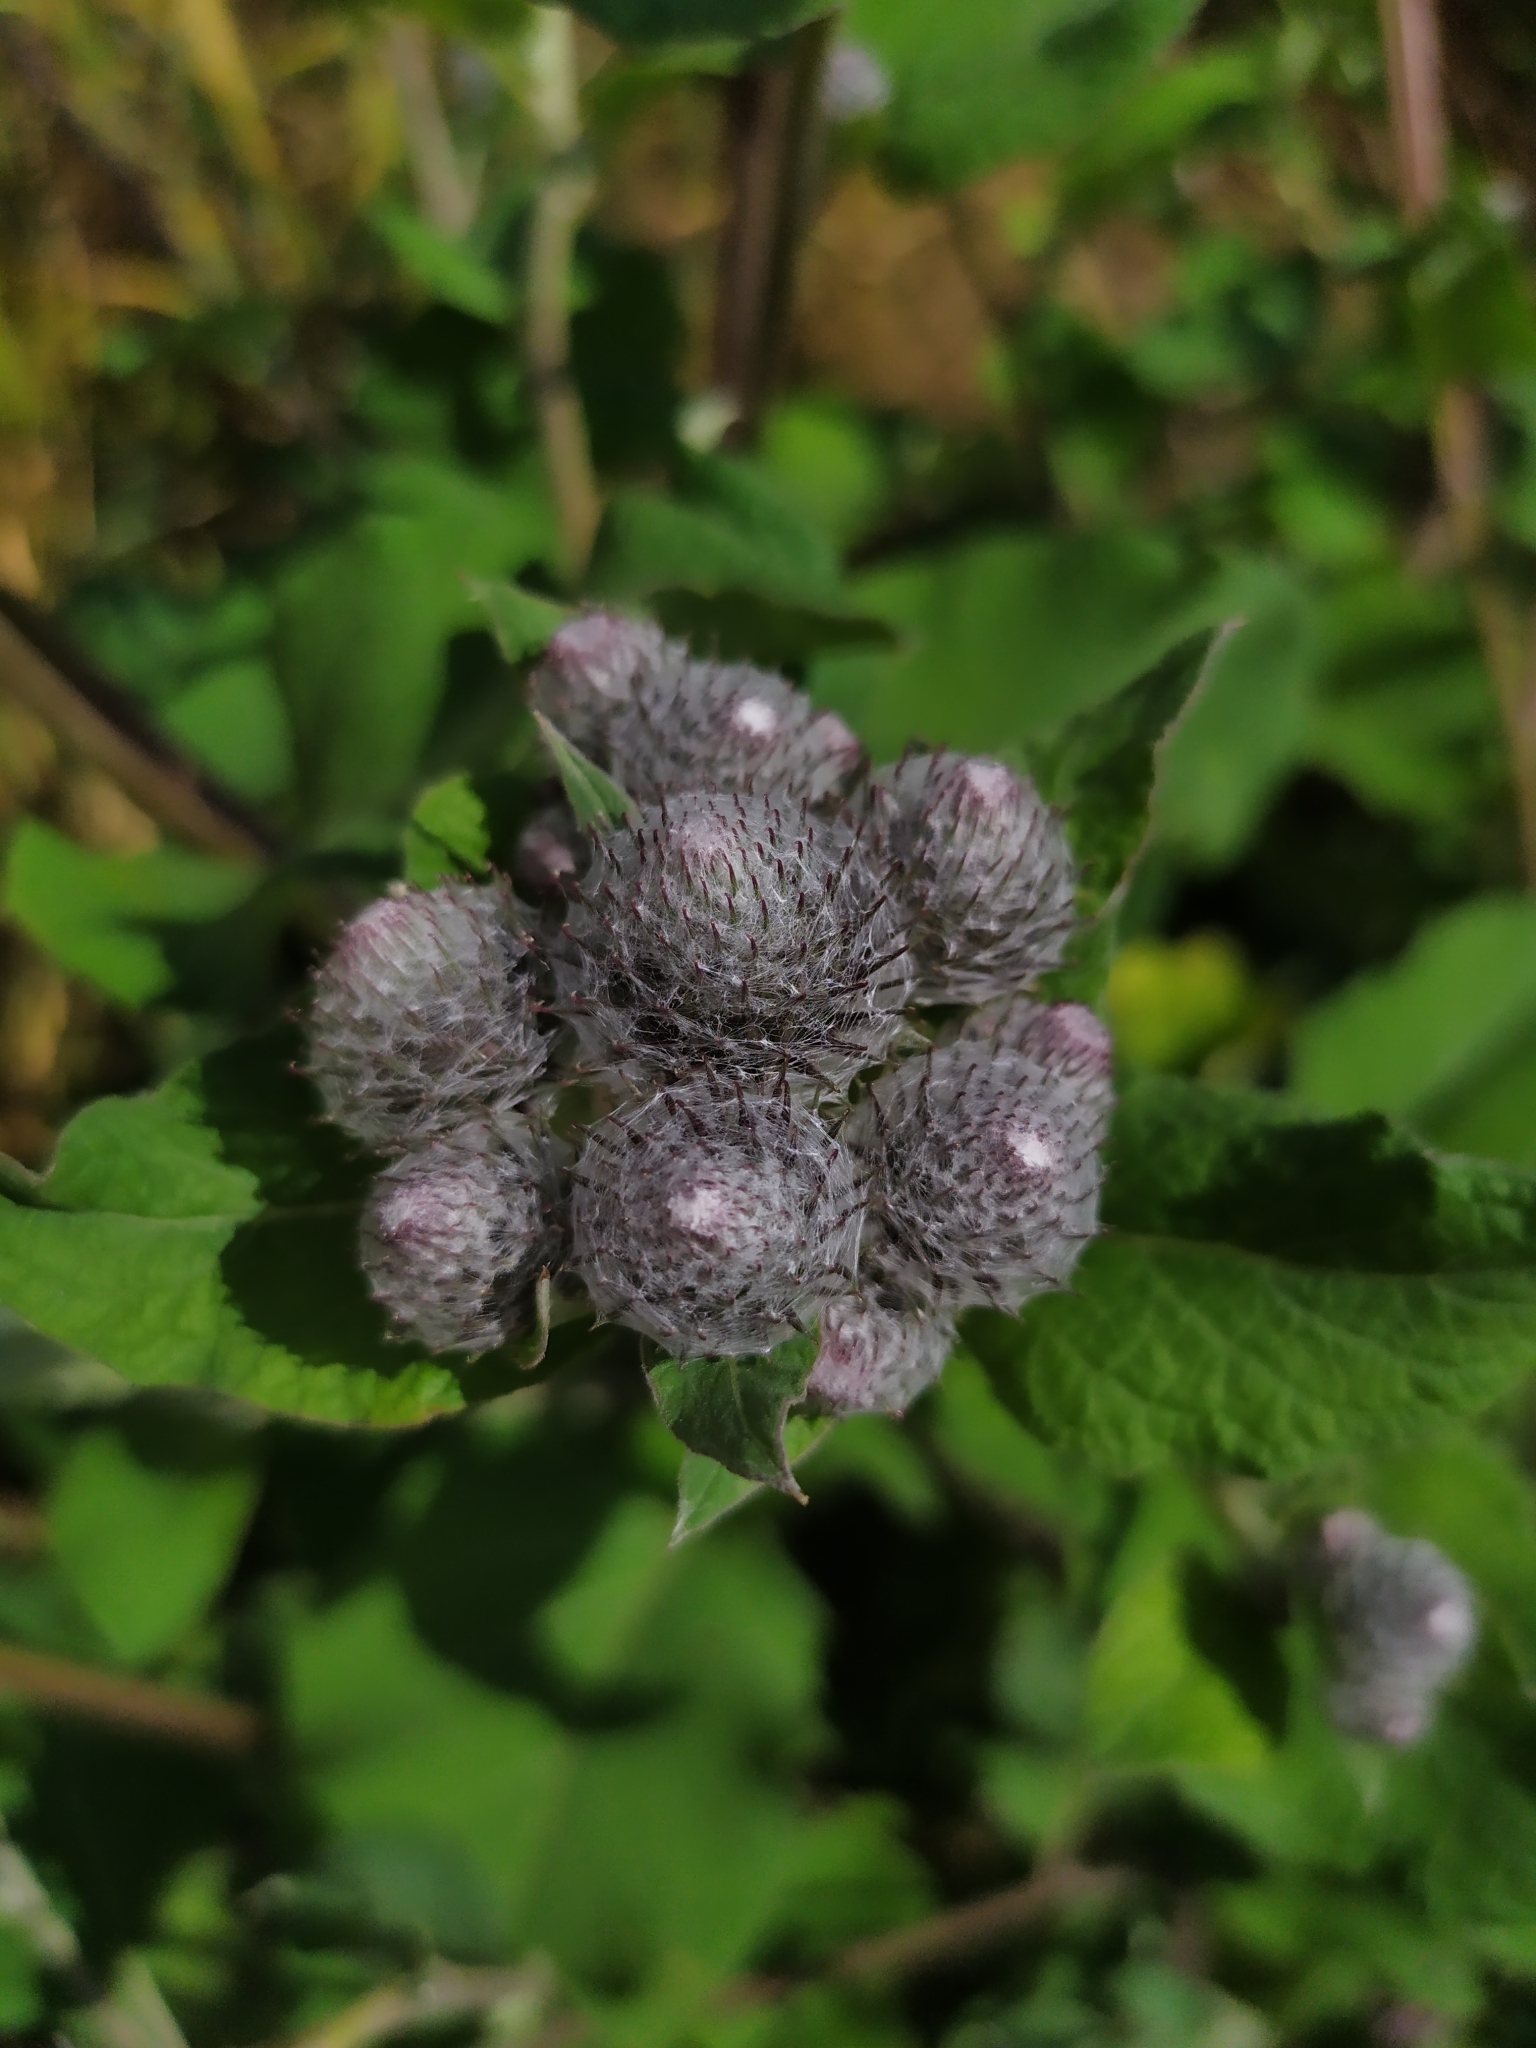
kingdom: Plantae
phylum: Tracheophyta
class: Magnoliopsida
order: Asterales
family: Asteraceae
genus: Arctium
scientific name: Arctium tomentosum
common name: Woolly burdock
